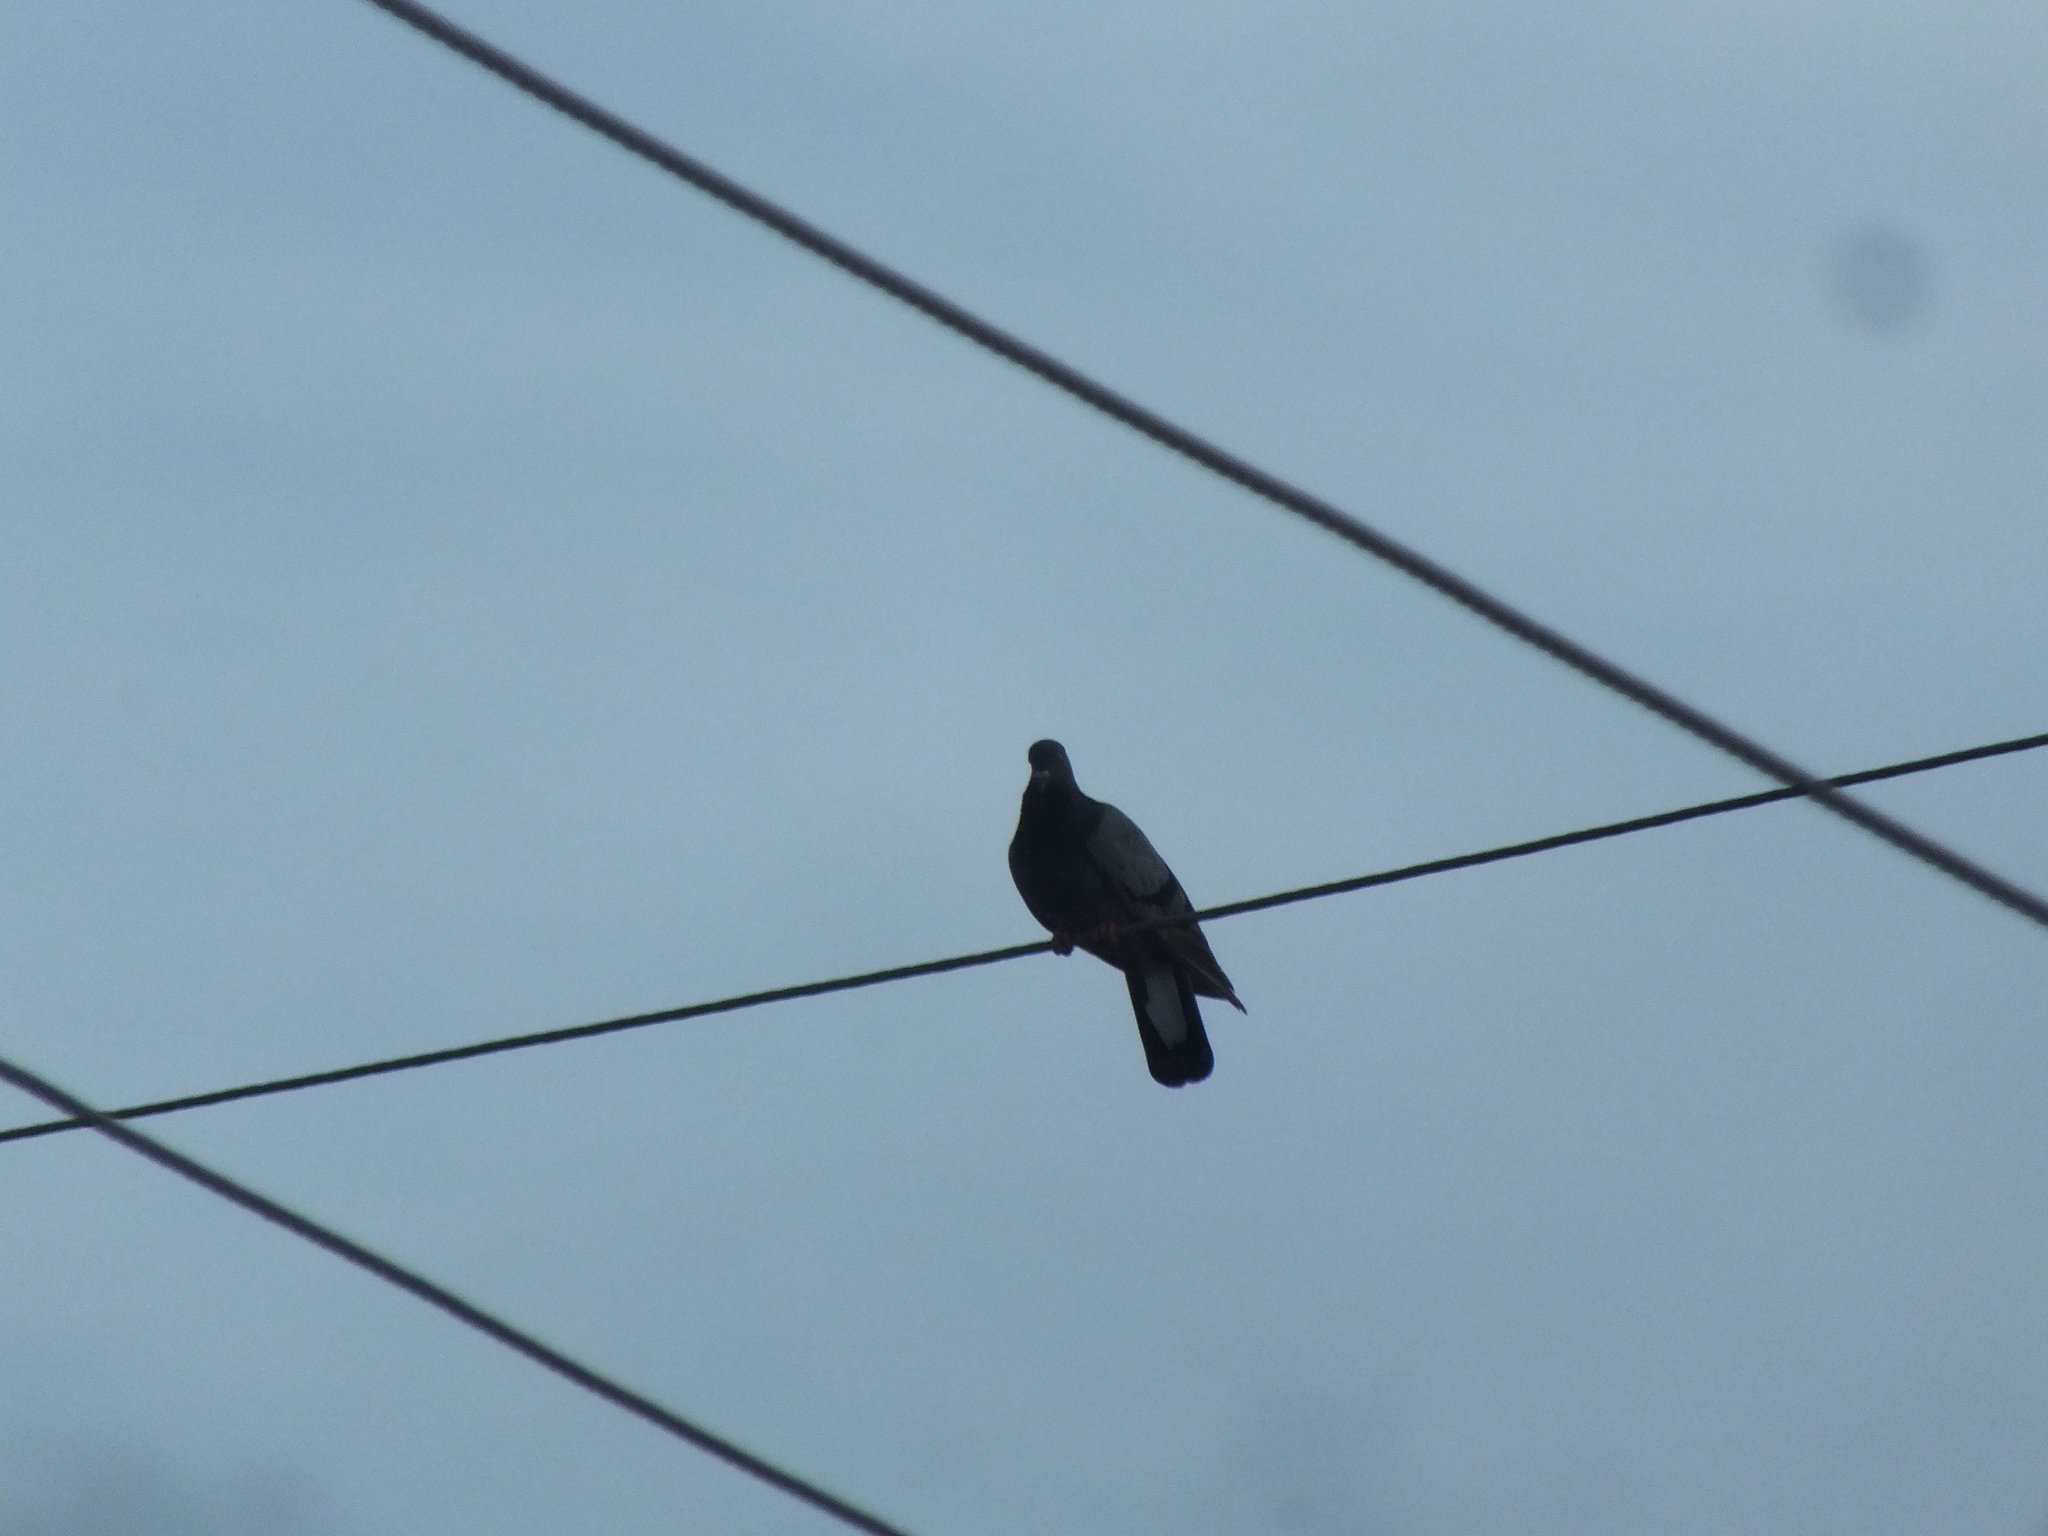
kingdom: Animalia
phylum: Chordata
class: Aves
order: Columbiformes
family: Columbidae
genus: Columba
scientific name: Columba livia
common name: Rock pigeon
